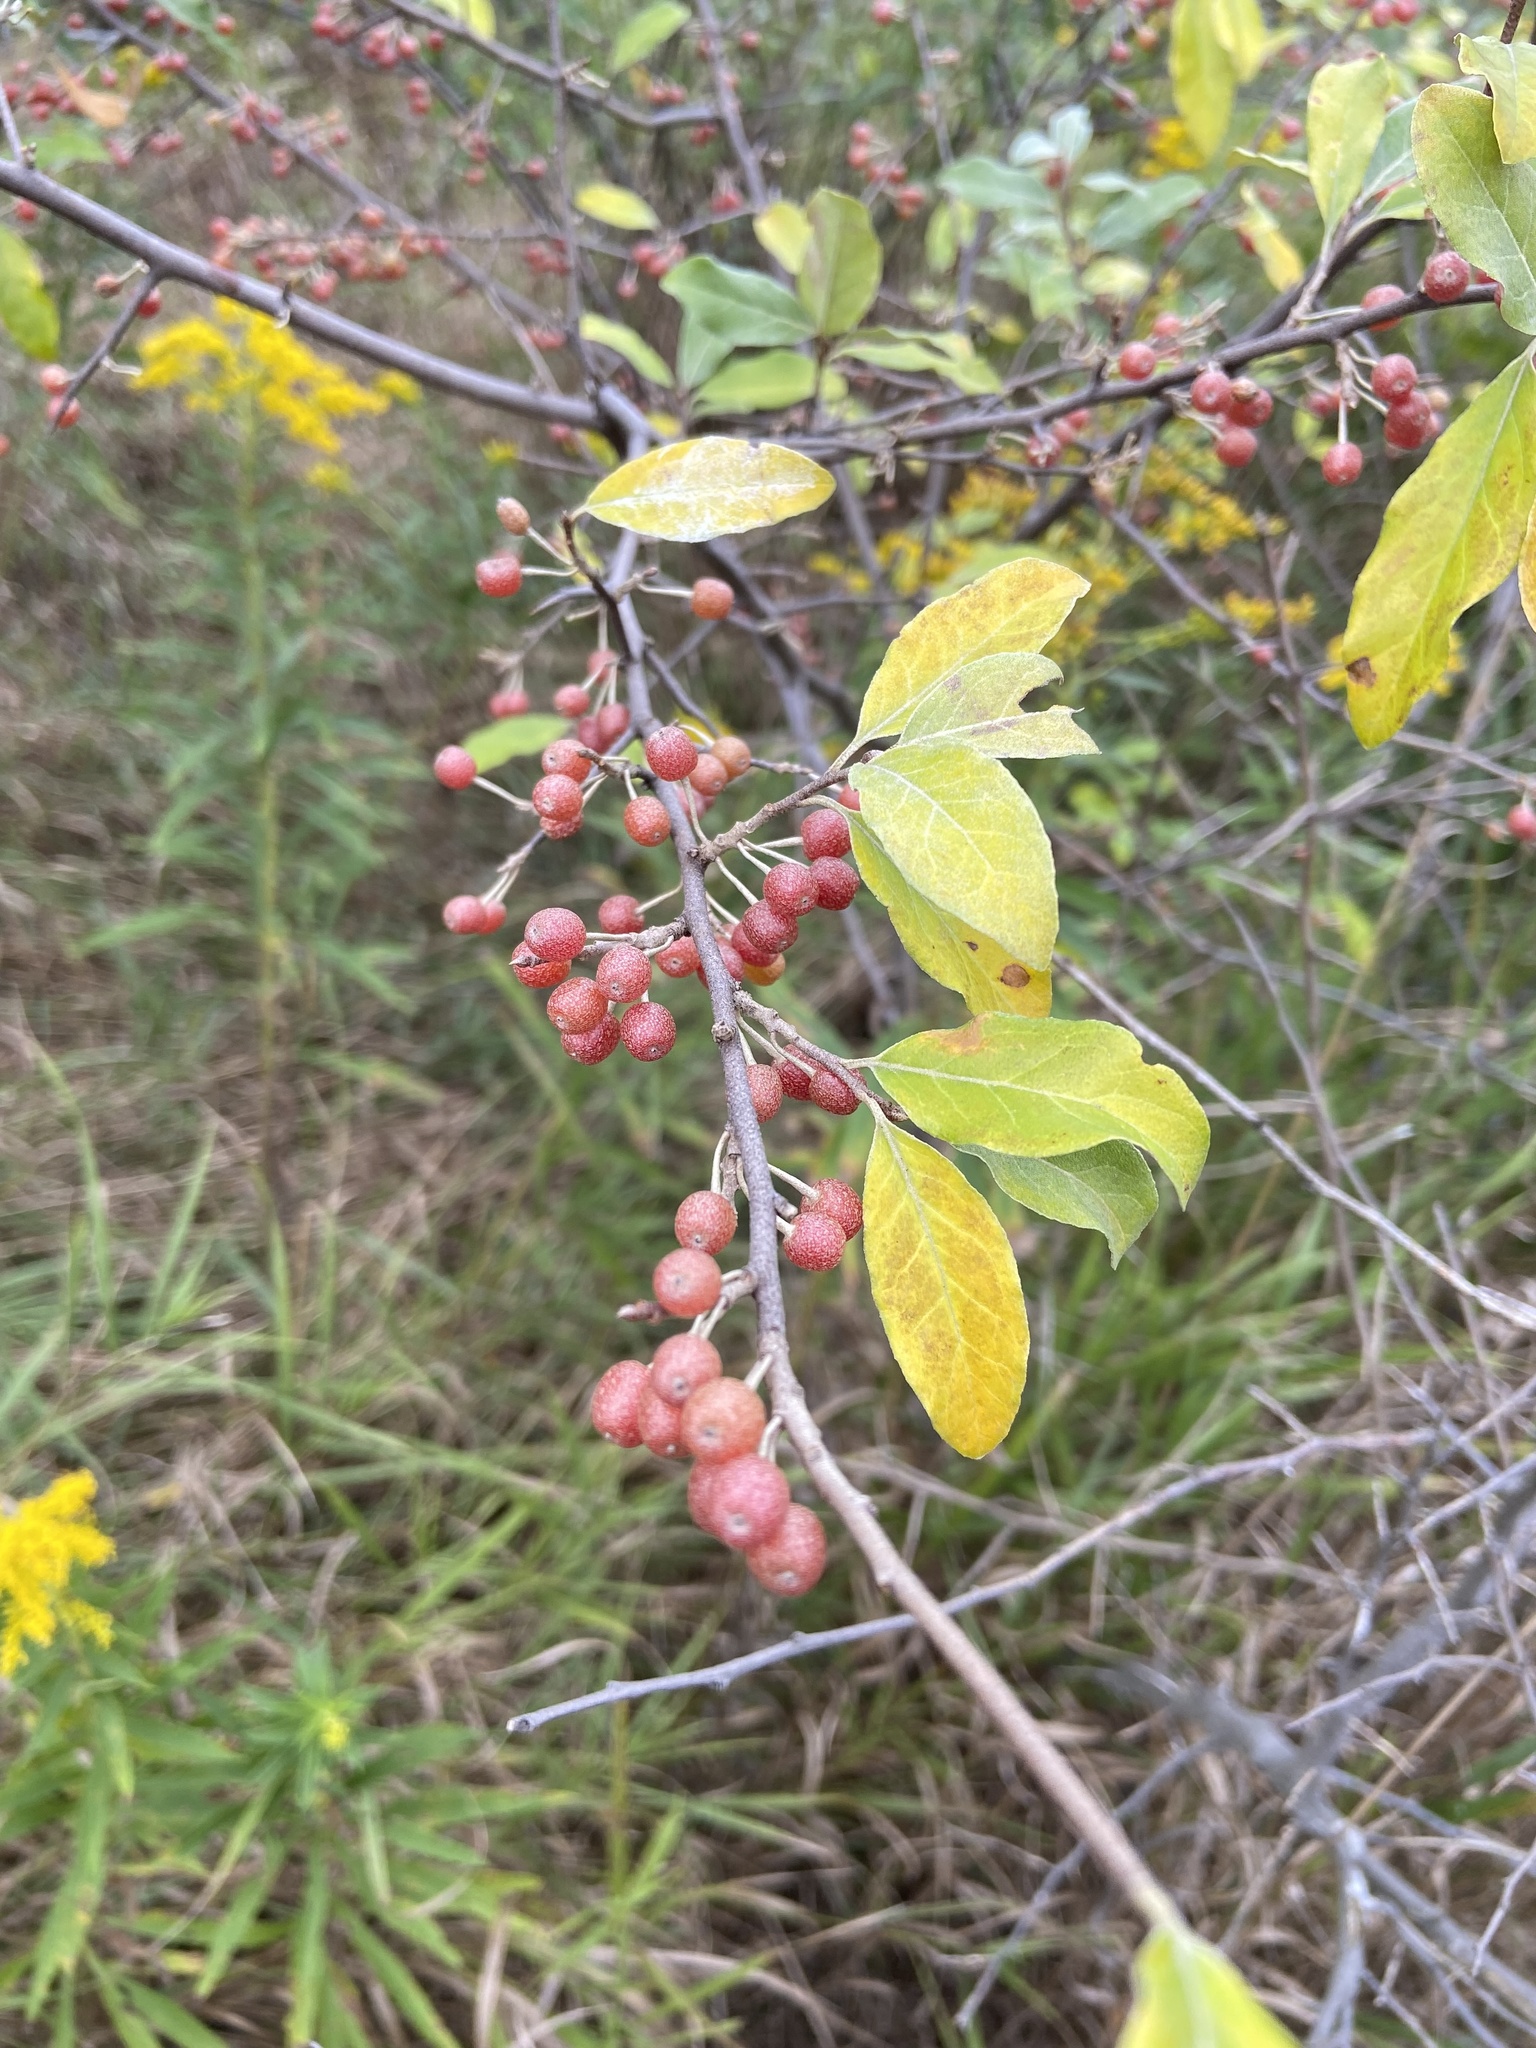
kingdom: Plantae
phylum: Tracheophyta
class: Magnoliopsida
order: Rosales
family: Elaeagnaceae
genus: Elaeagnus
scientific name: Elaeagnus umbellata
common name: Autumn olive
